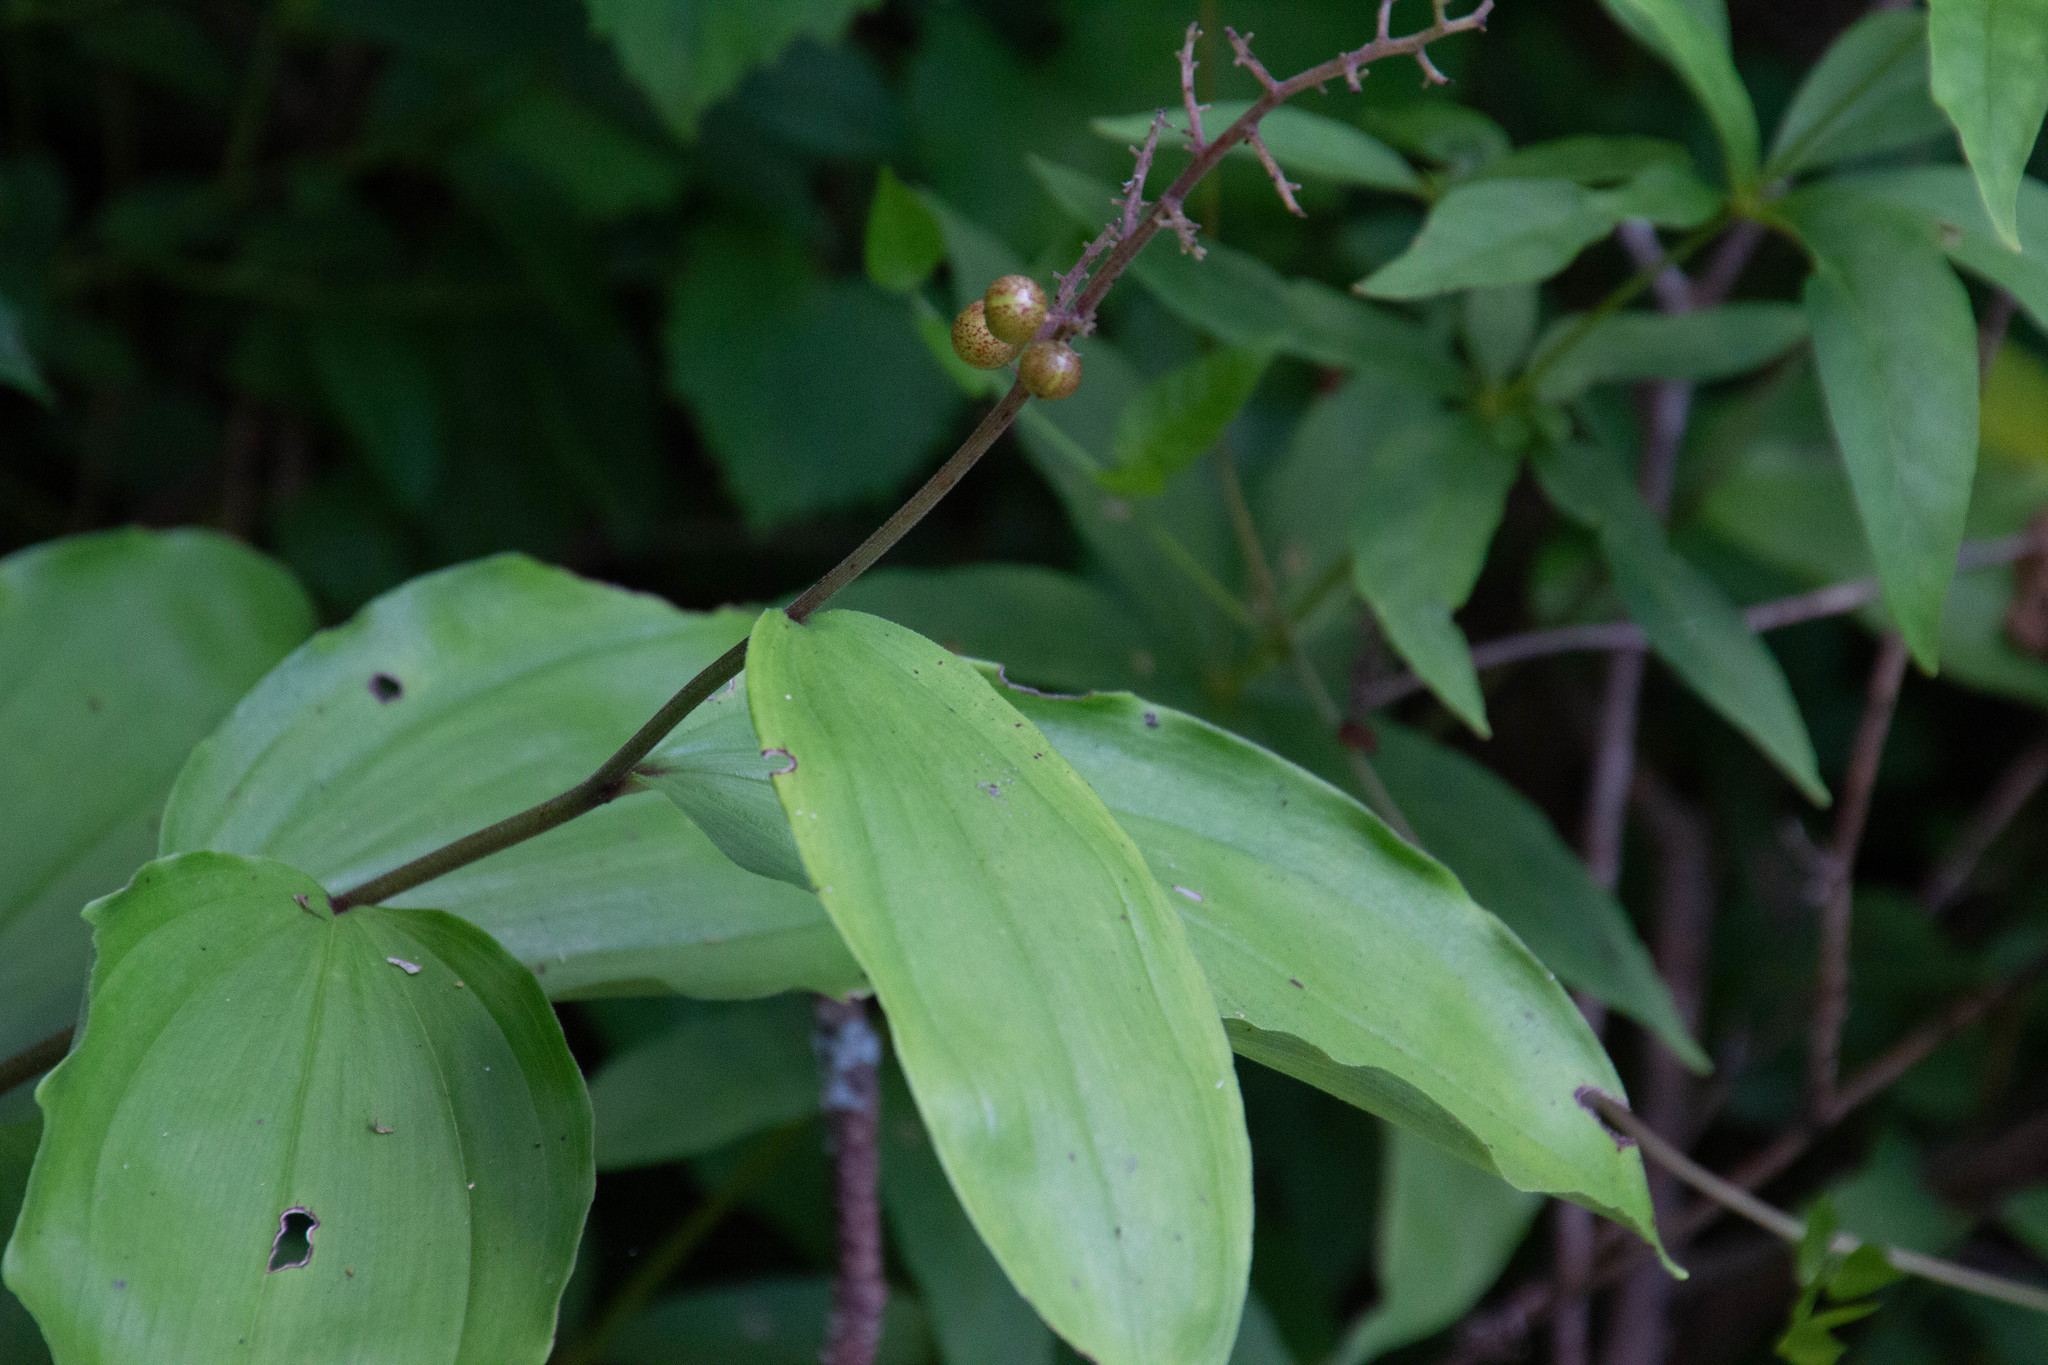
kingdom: Plantae
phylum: Tracheophyta
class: Liliopsida
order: Asparagales
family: Asparagaceae
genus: Maianthemum
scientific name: Maianthemum racemosum
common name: False spikenard
